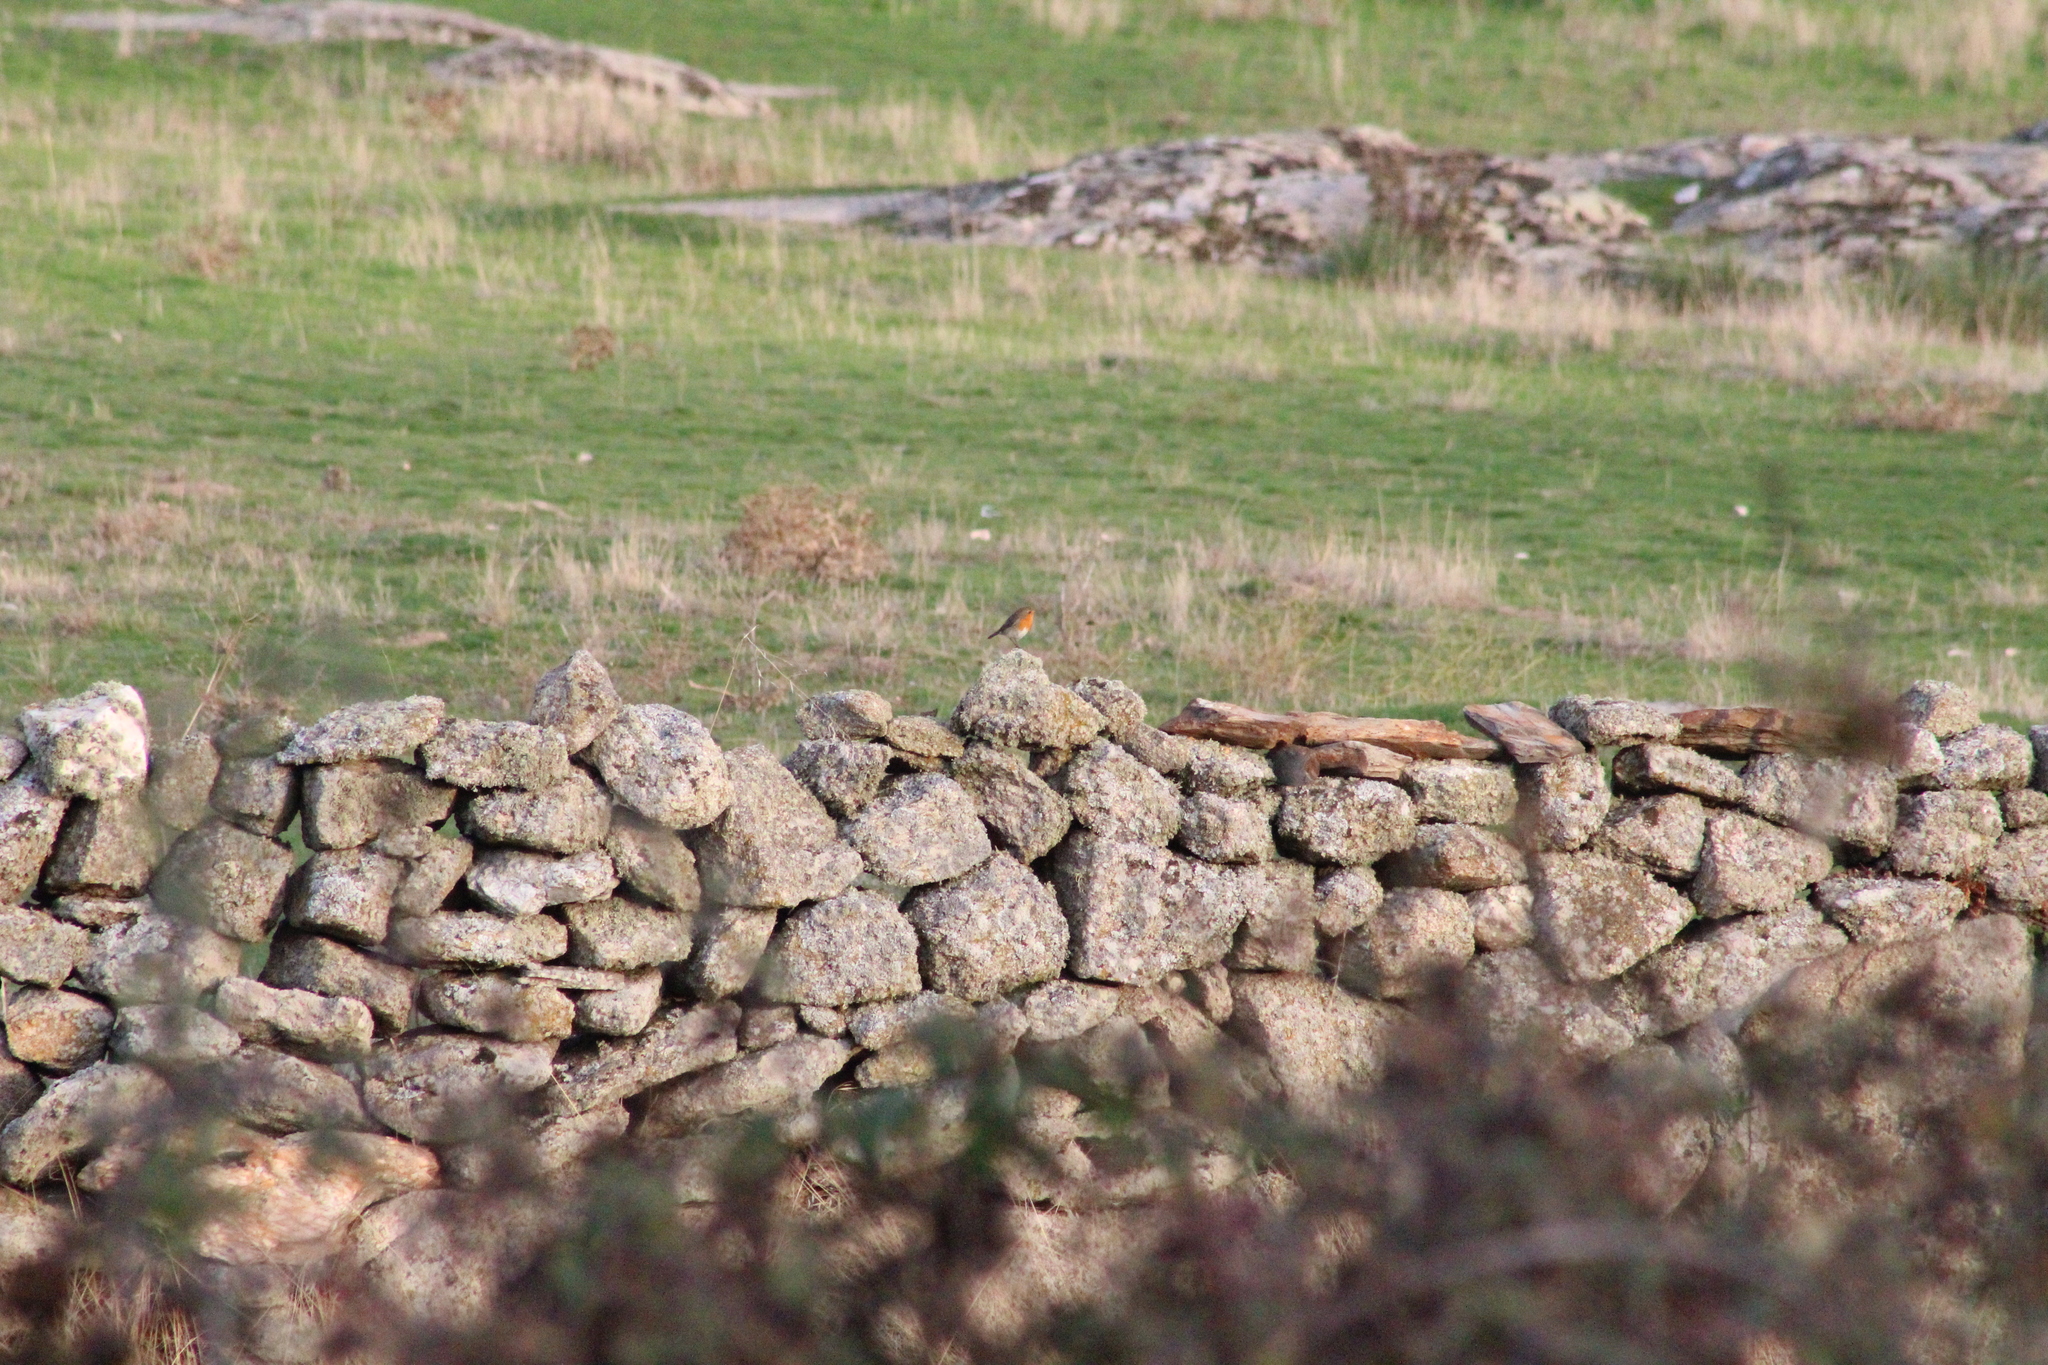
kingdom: Animalia
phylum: Chordata
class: Aves
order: Passeriformes
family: Muscicapidae
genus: Erithacus
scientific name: Erithacus rubecula
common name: European robin
